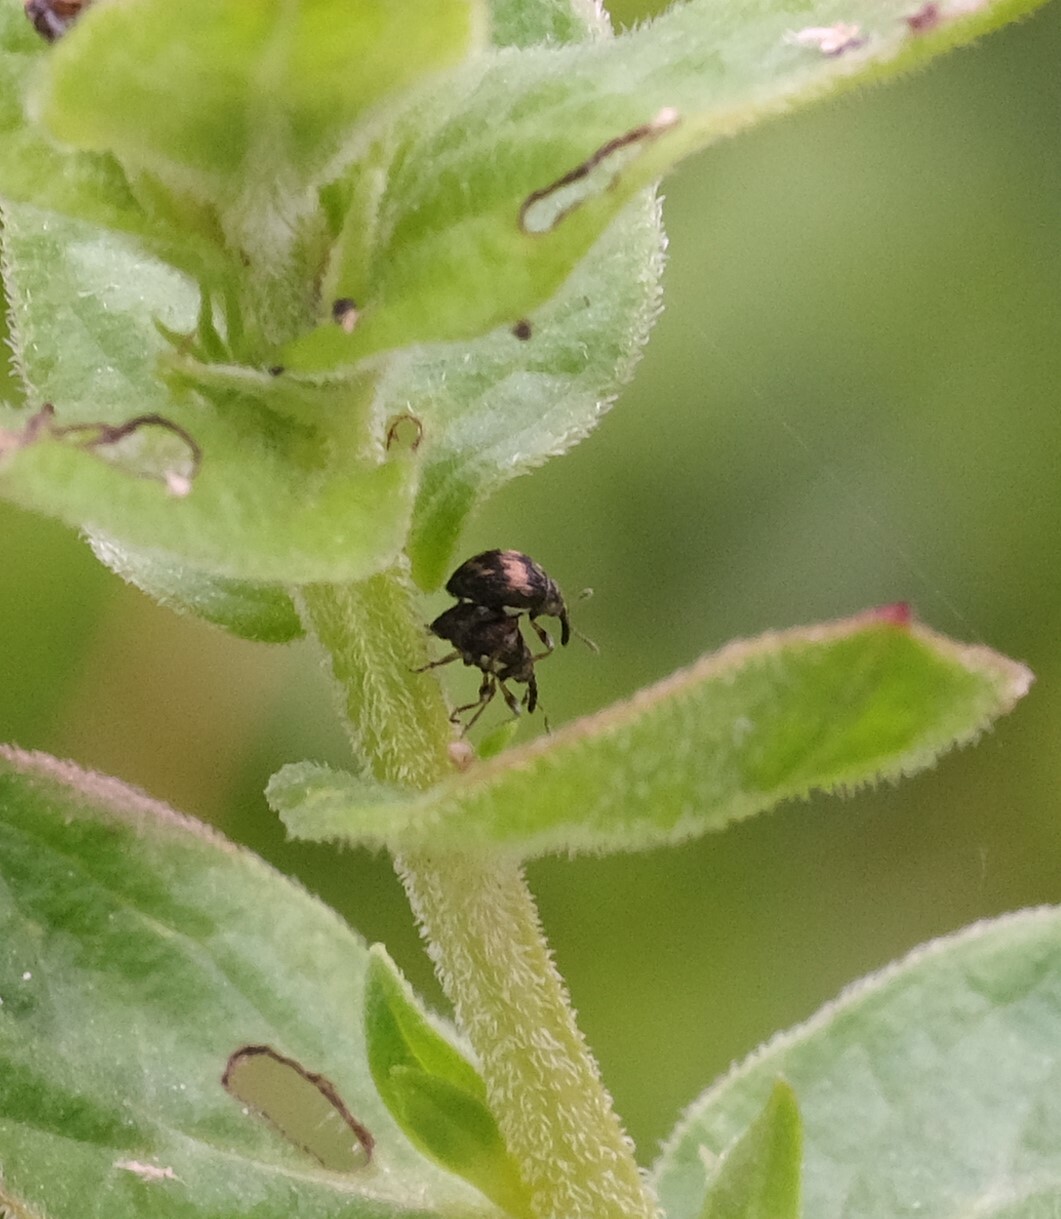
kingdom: Animalia
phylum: Arthropoda
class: Insecta
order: Coleoptera
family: Brentidae
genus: Nanophyes
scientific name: Nanophyes marmoratus
